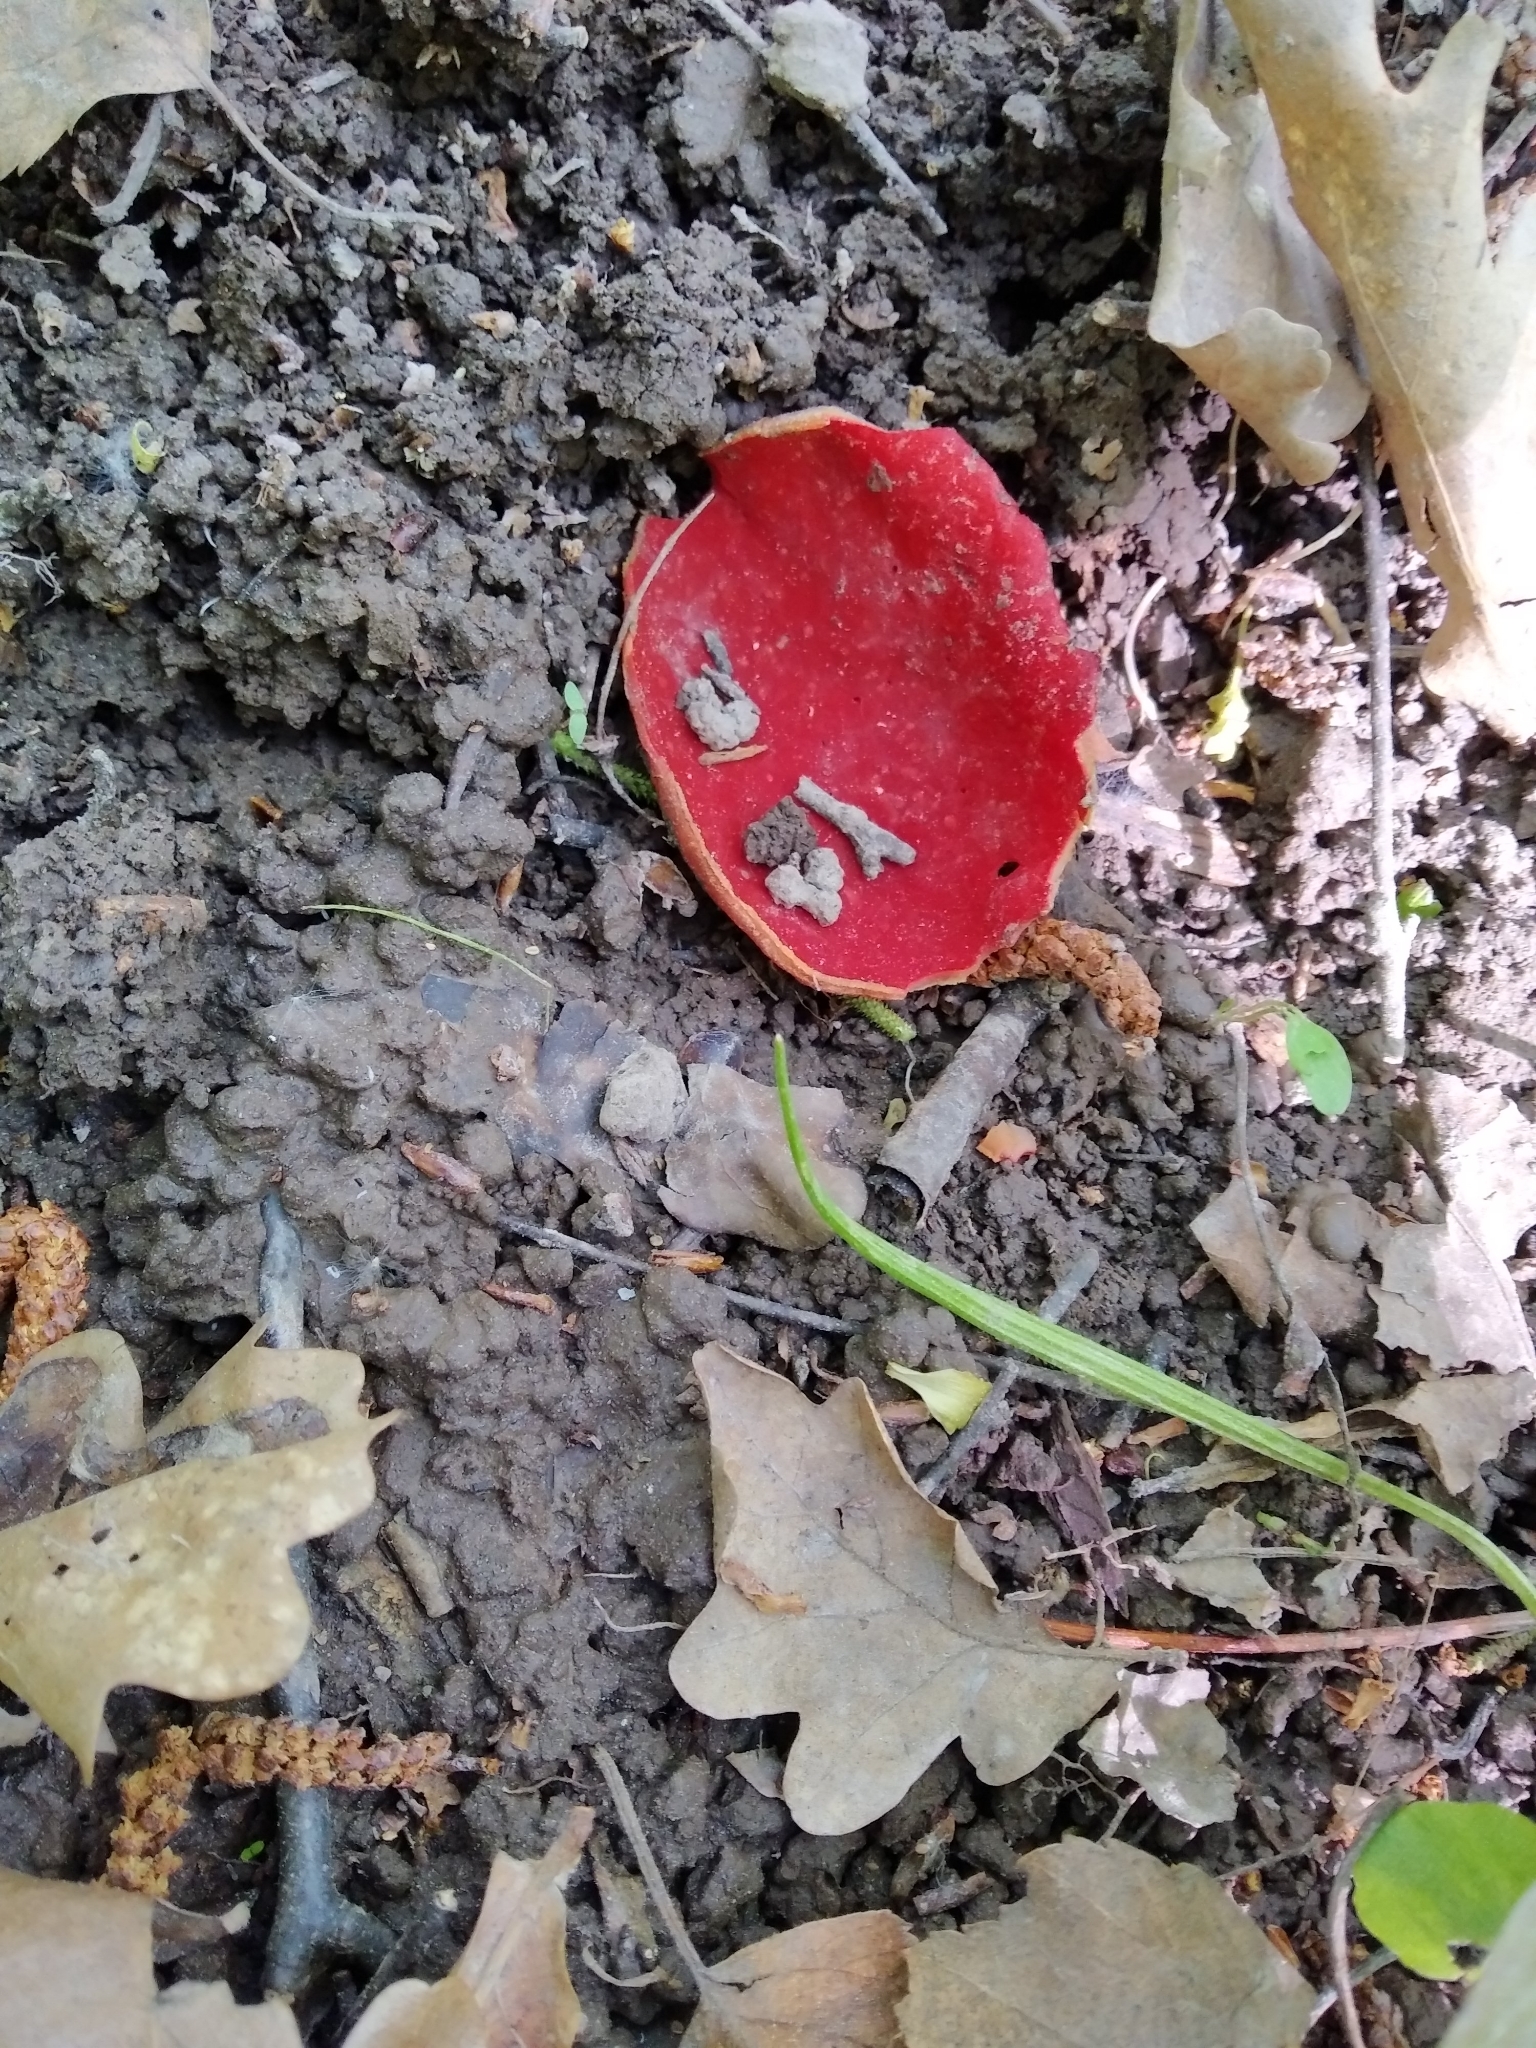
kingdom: Fungi
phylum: Ascomycota
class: Pezizomycetes
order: Pezizales
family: Sarcoscyphaceae
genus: Sarcoscypha
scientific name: Sarcoscypha
